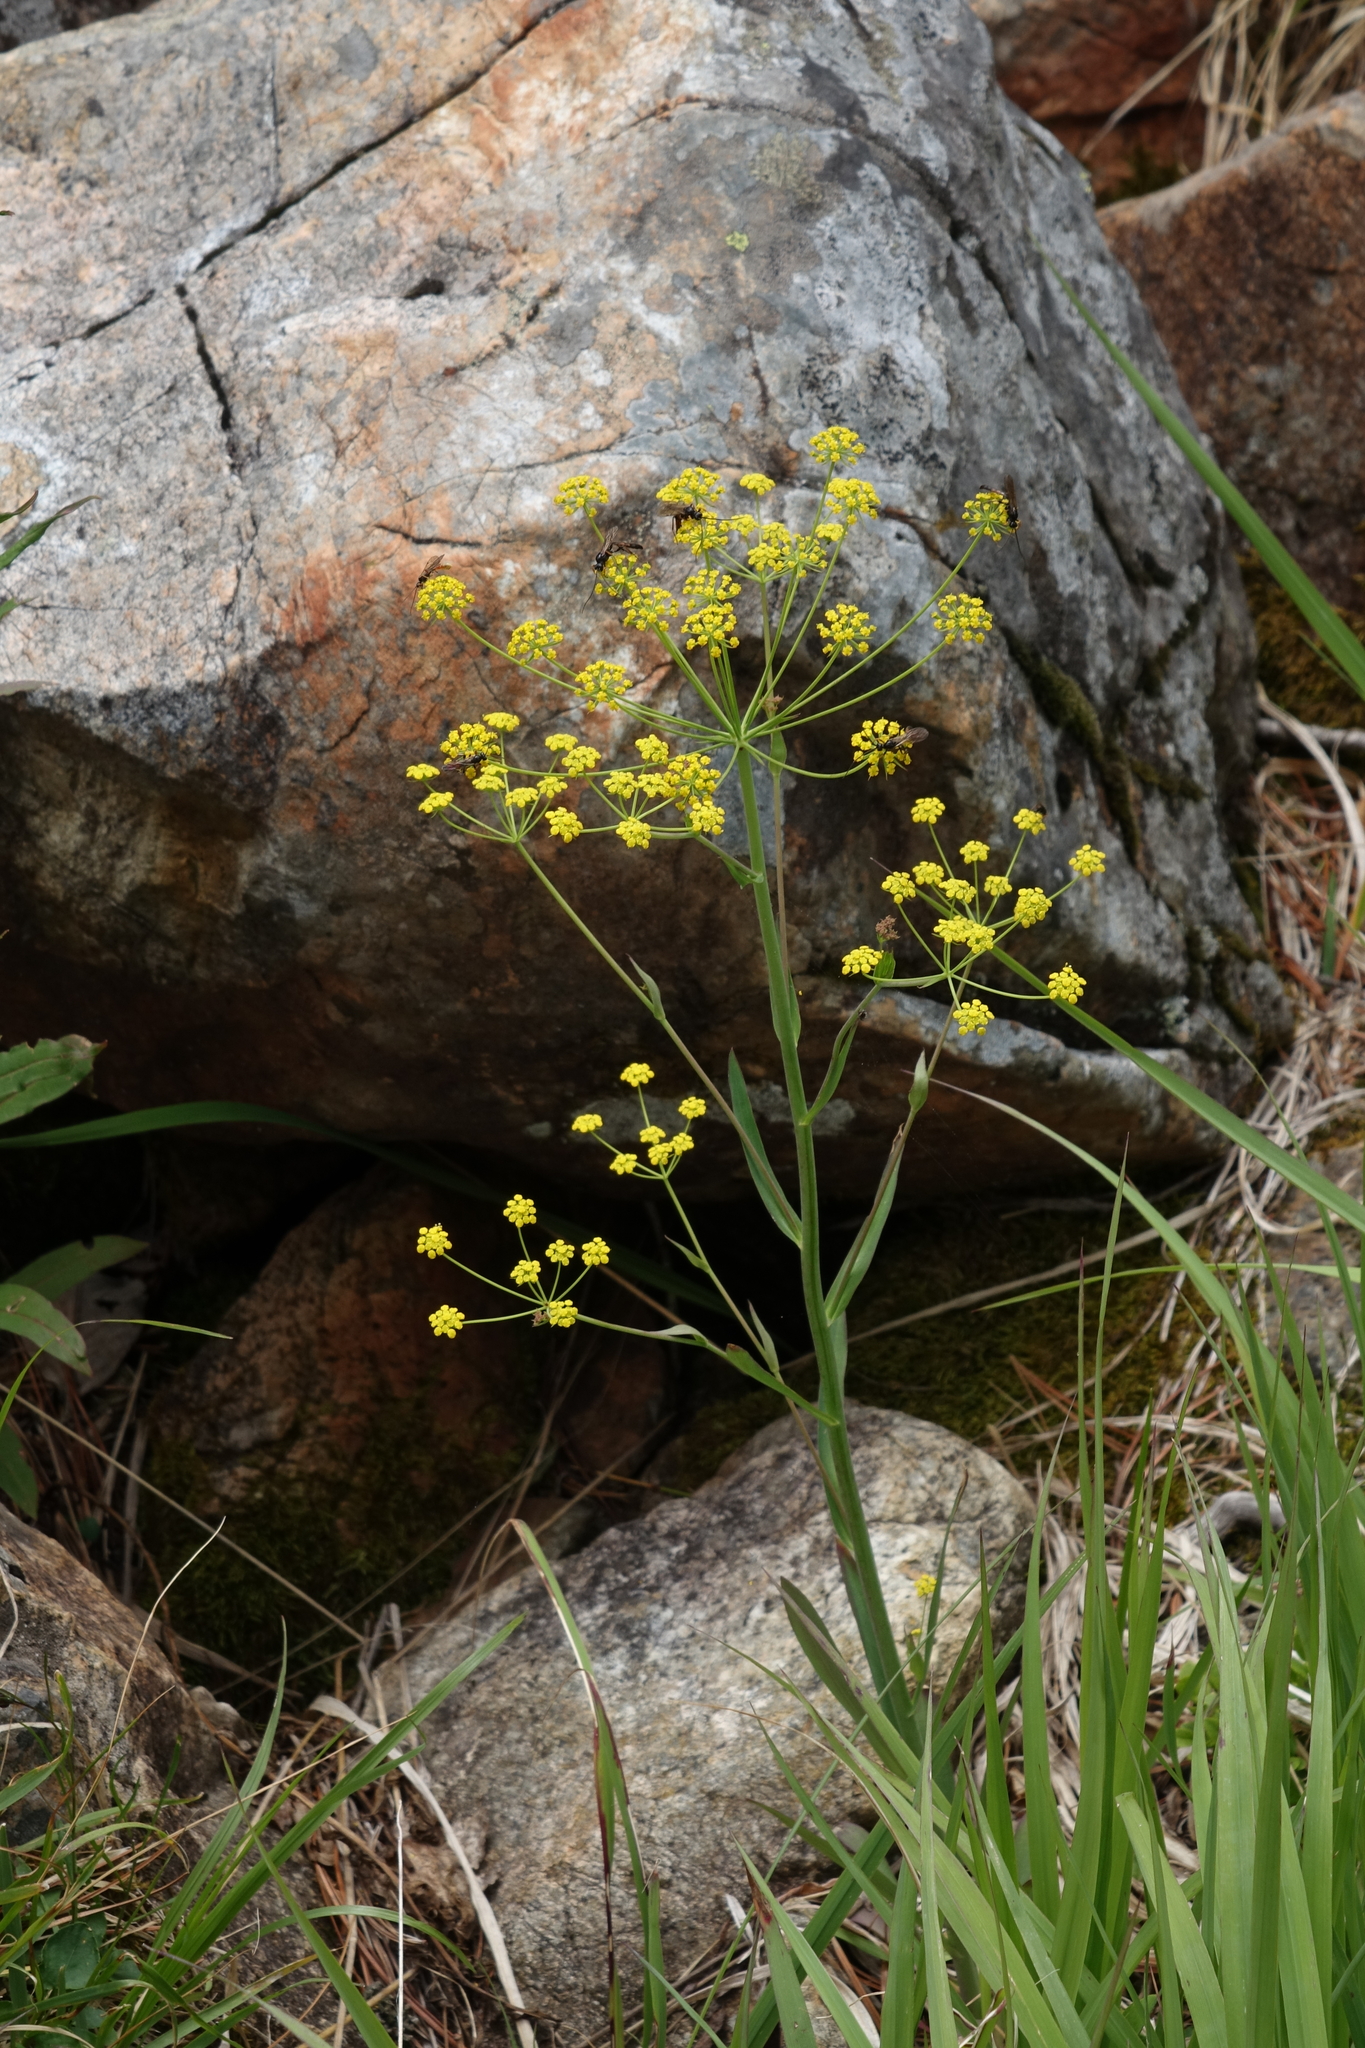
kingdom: Plantae
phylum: Tracheophyta
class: Magnoliopsida
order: Apiales
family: Apiaceae
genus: Bupleurum
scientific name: Bupleurum martjanovii
